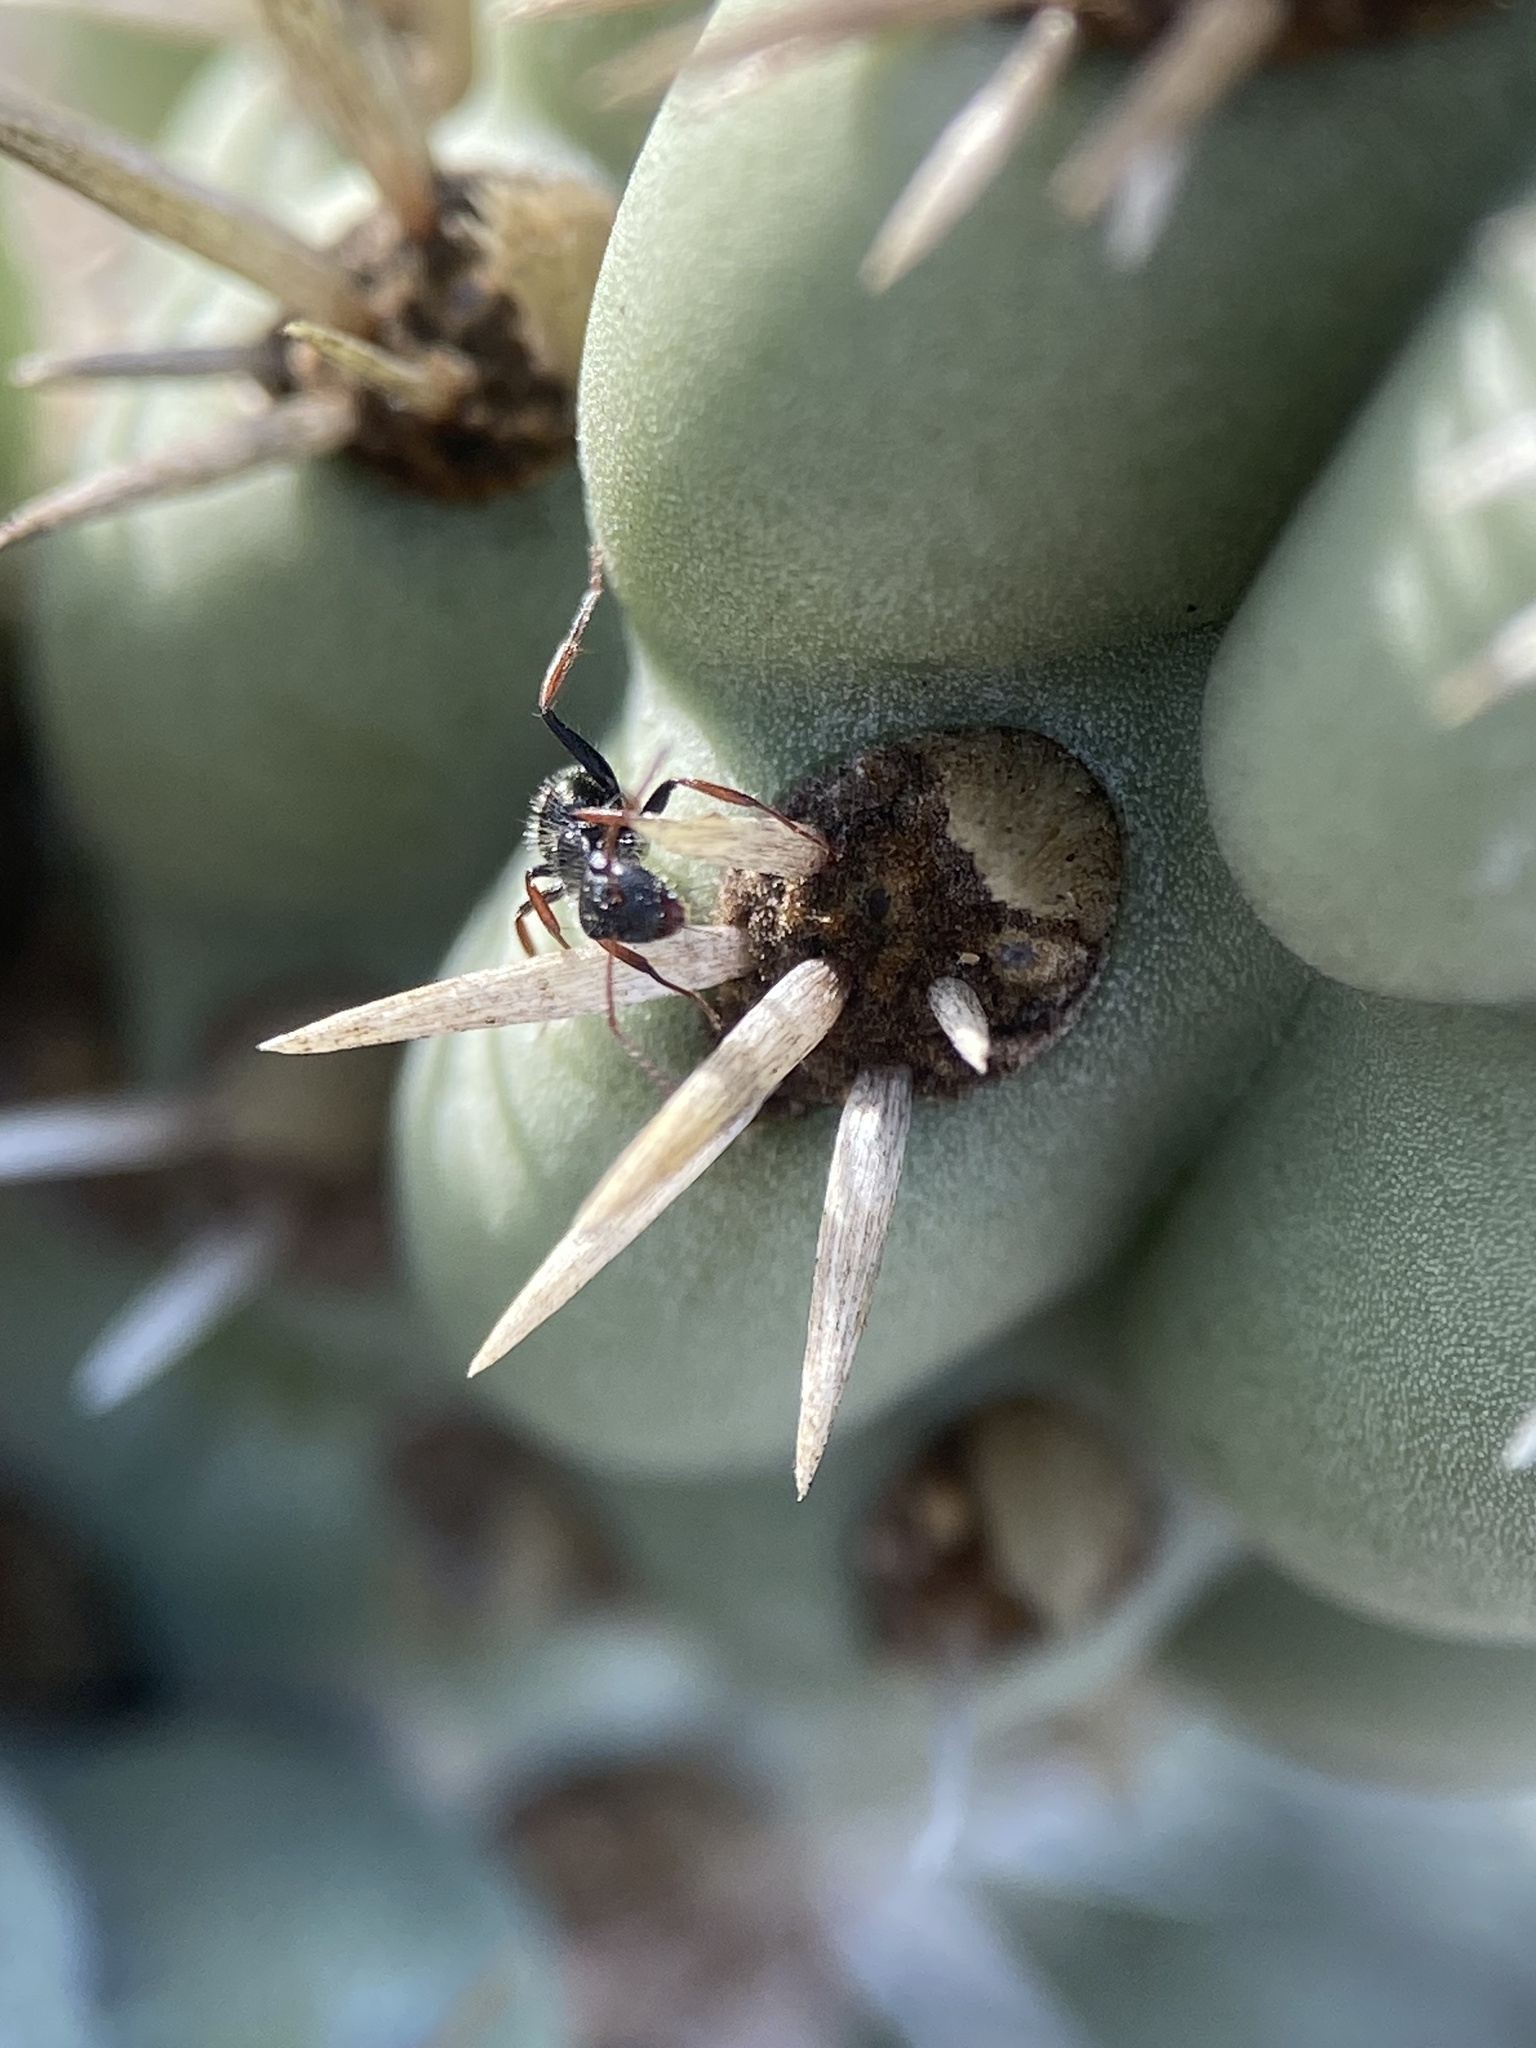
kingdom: Animalia
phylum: Arthropoda
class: Insecta
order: Hymenoptera
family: Formicidae
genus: Camponotus
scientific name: Camponotus mina
